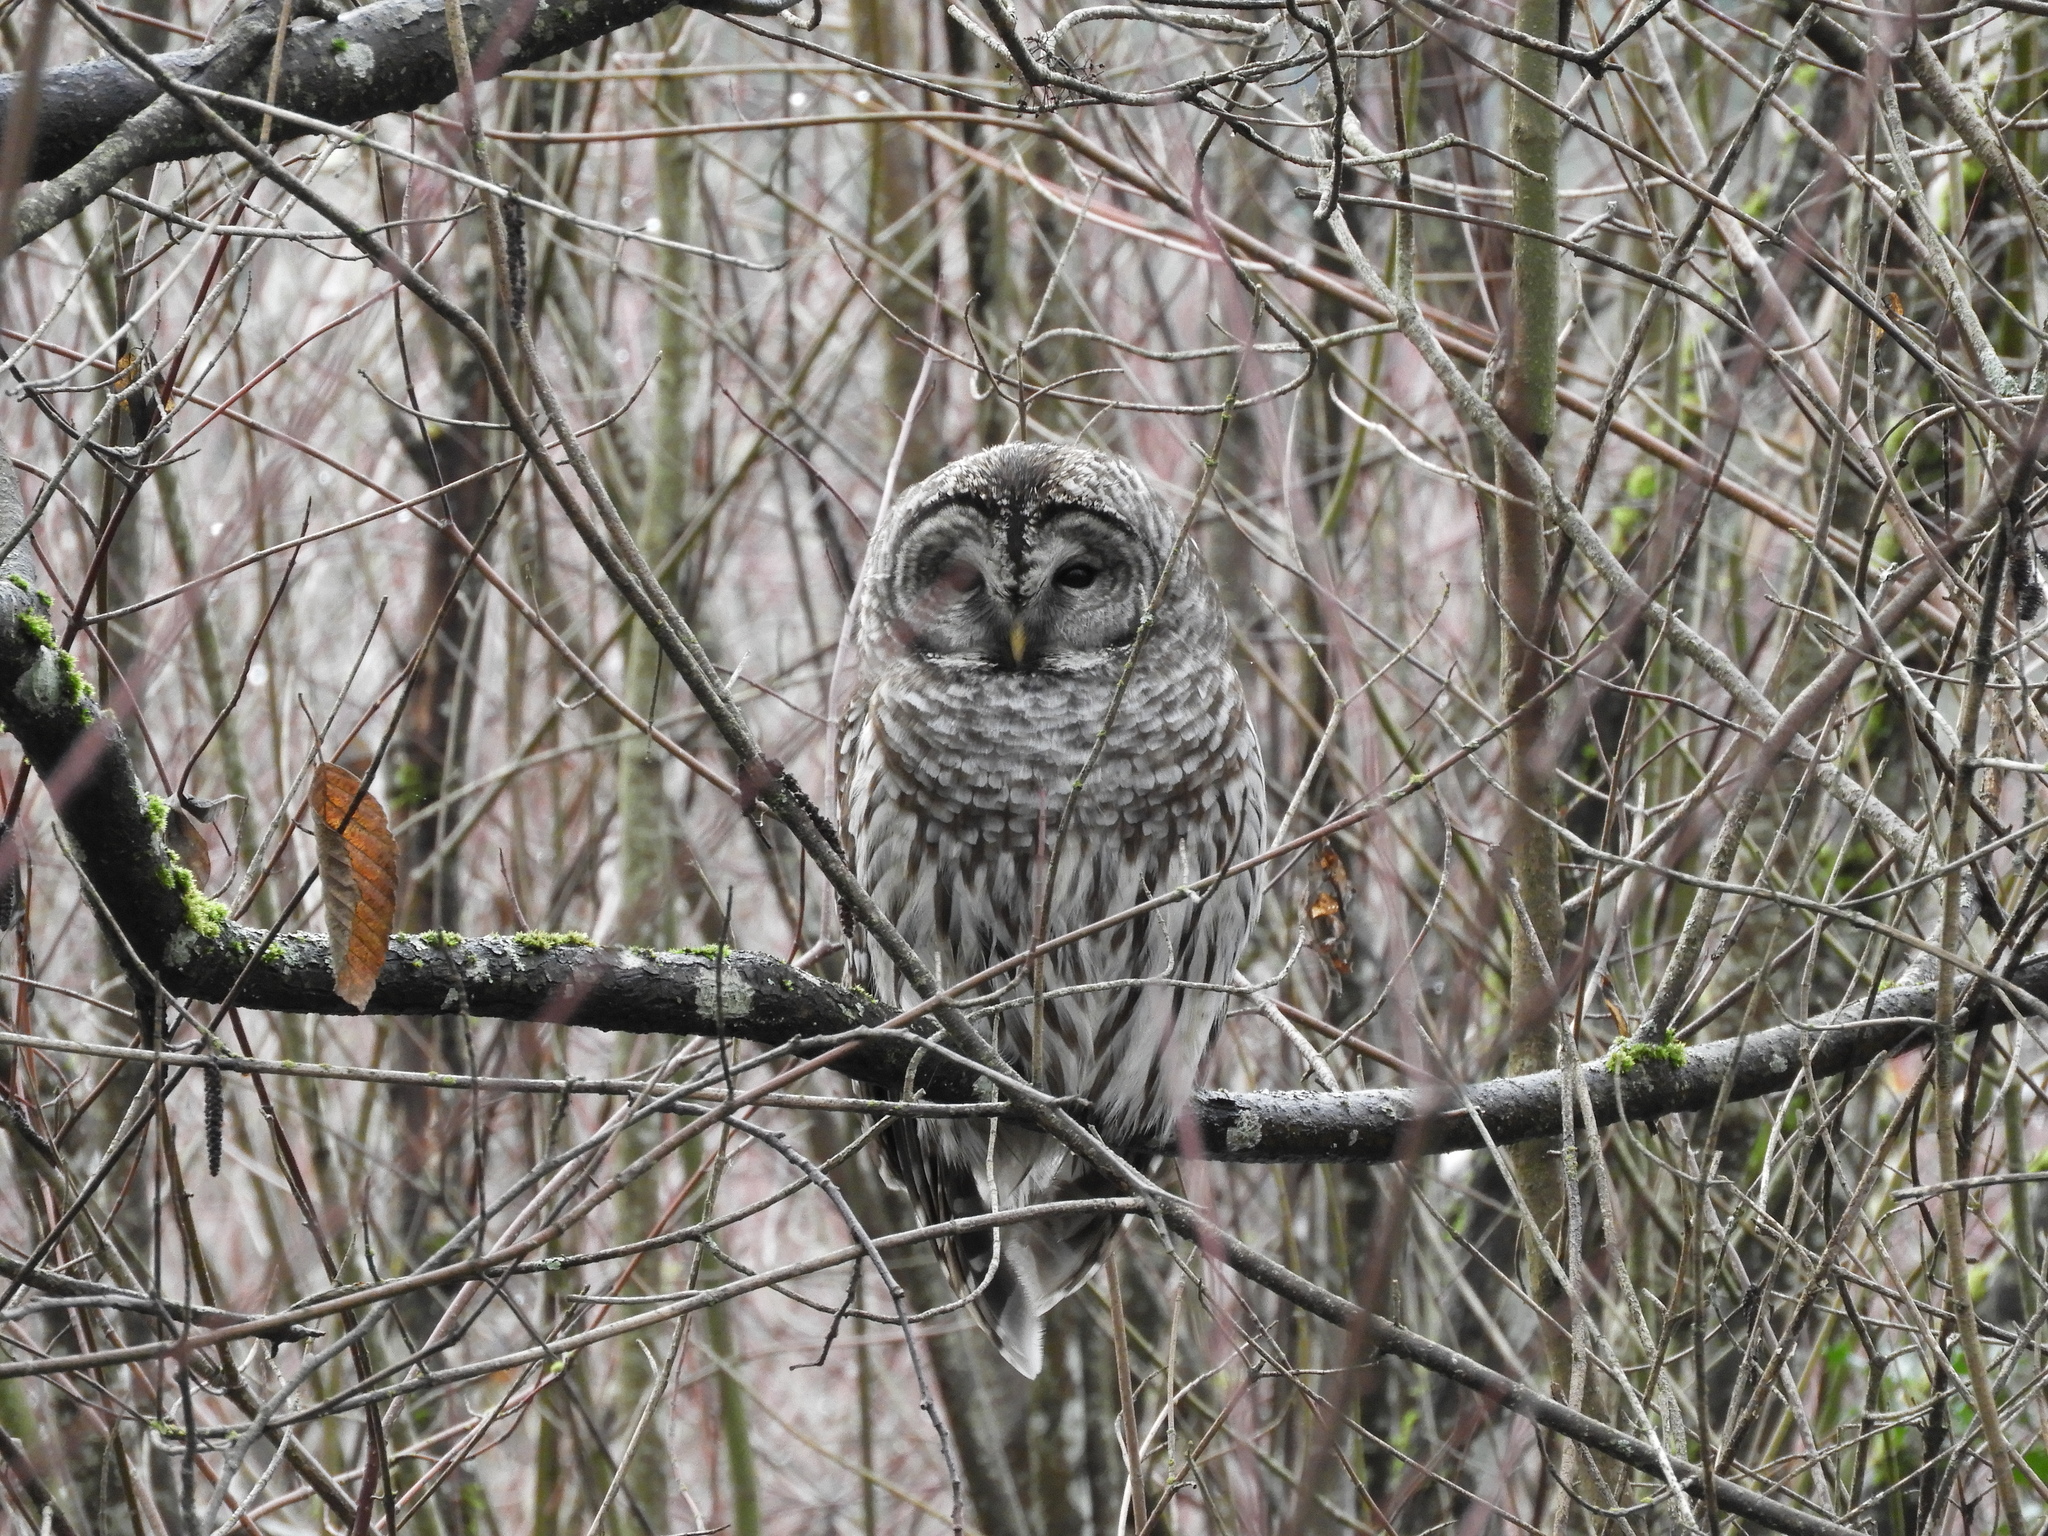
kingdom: Animalia
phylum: Chordata
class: Aves
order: Strigiformes
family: Strigidae
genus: Strix
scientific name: Strix varia
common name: Barred owl
